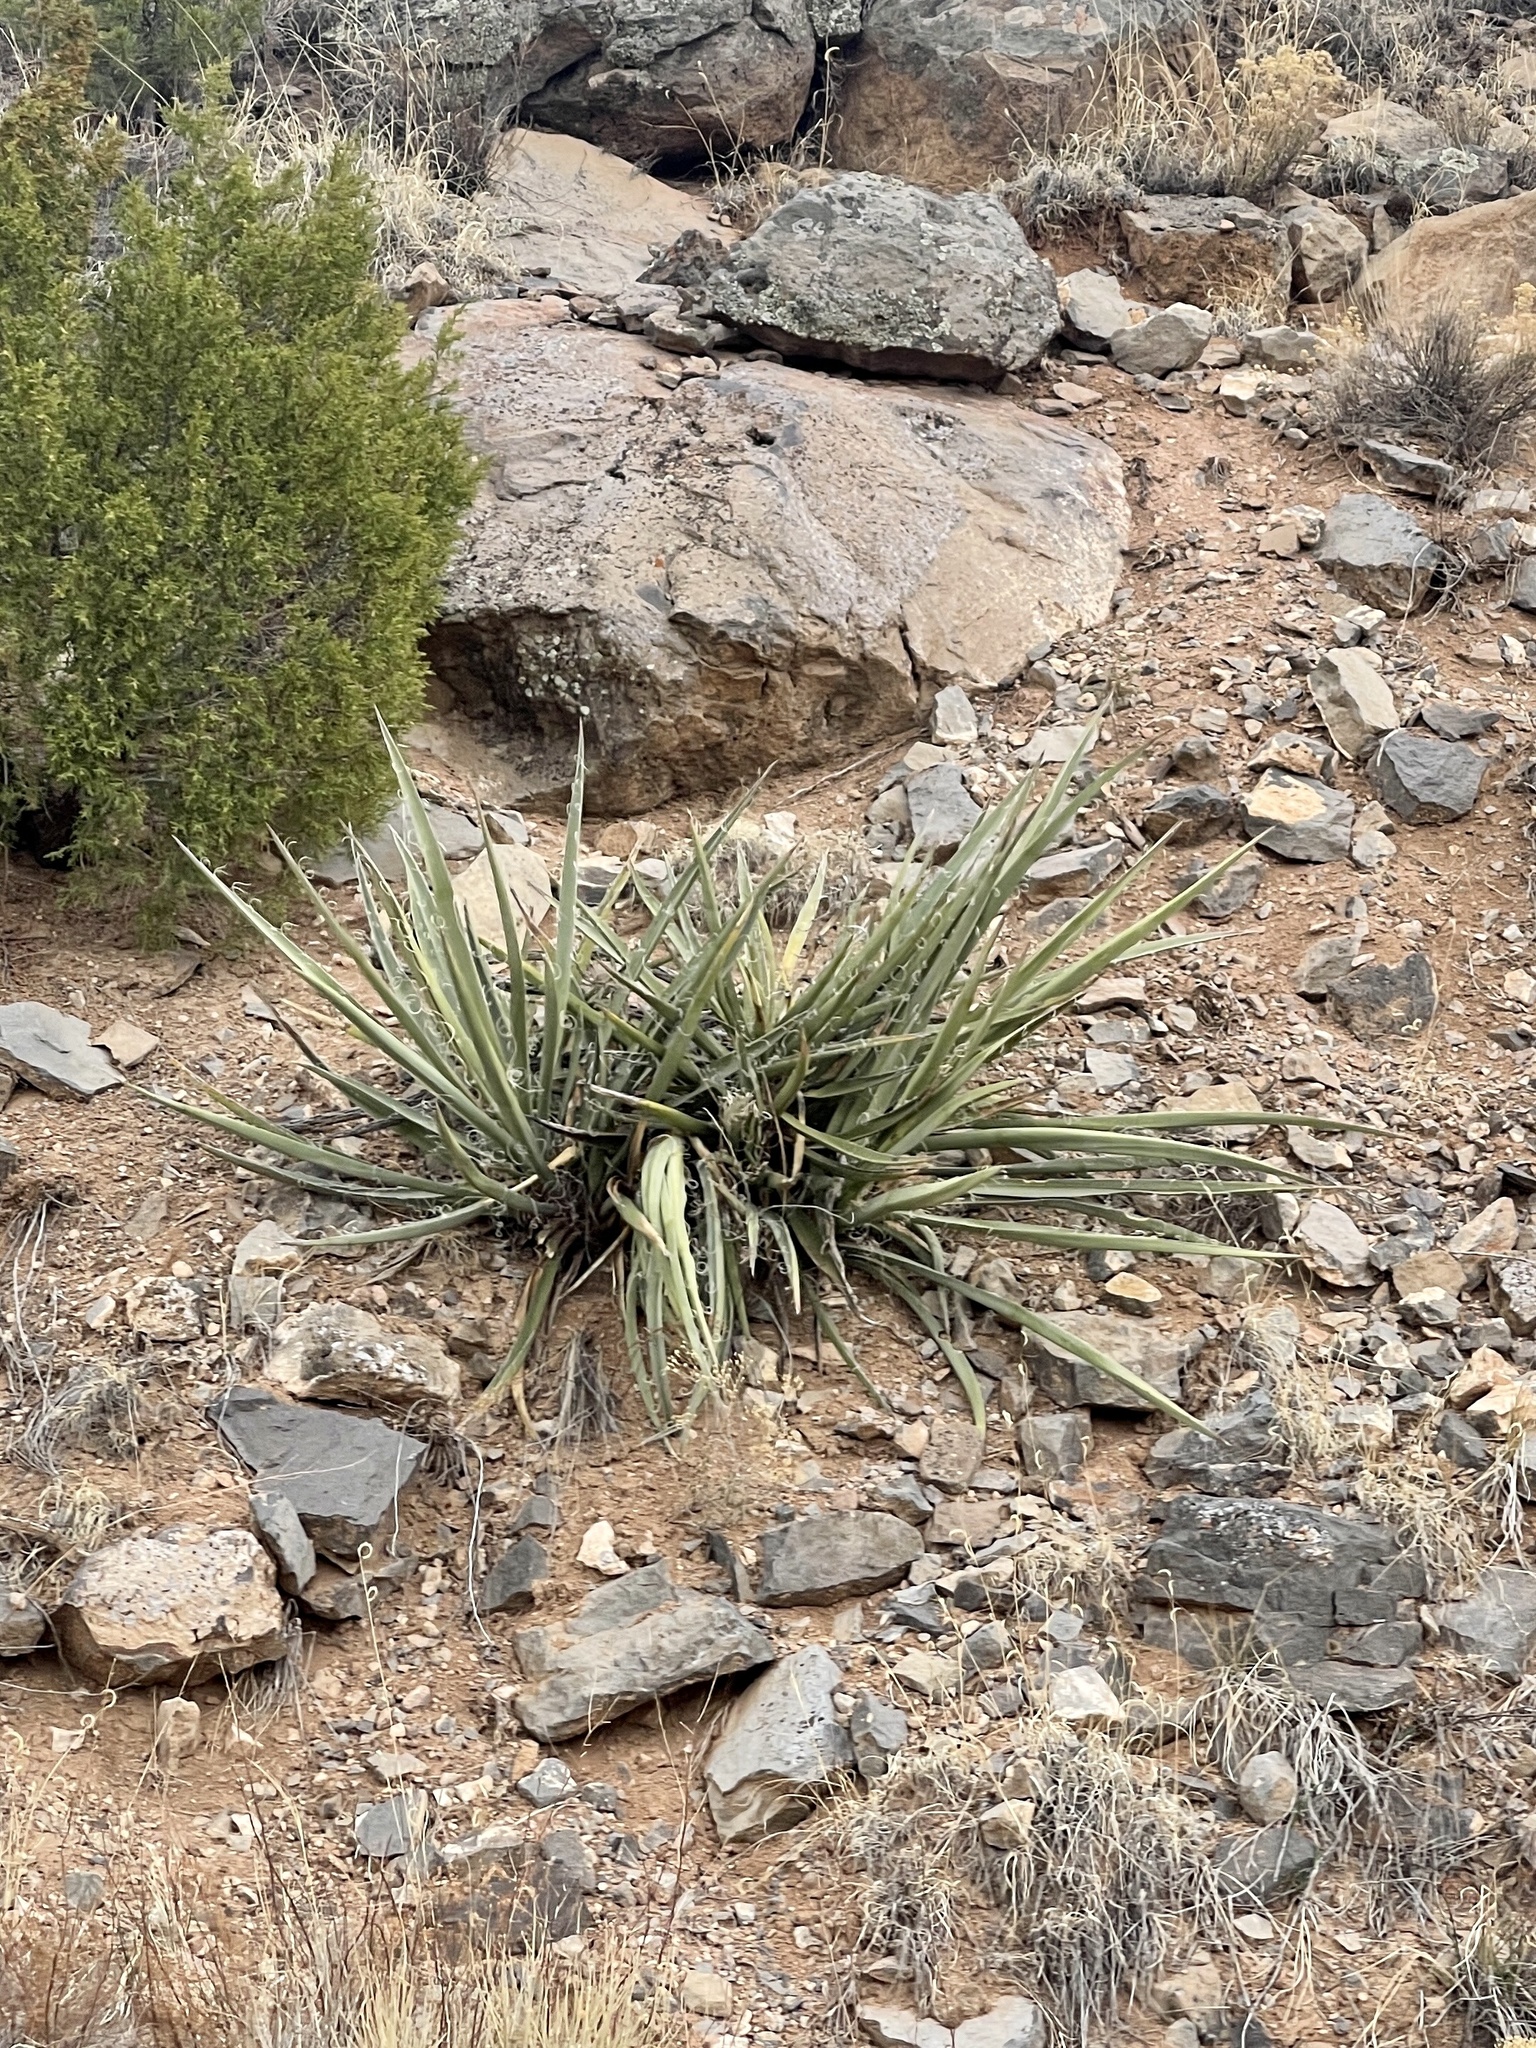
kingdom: Plantae
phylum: Tracheophyta
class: Liliopsida
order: Asparagales
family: Asparagaceae
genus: Yucca
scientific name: Yucca baccata
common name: Banana yucca
